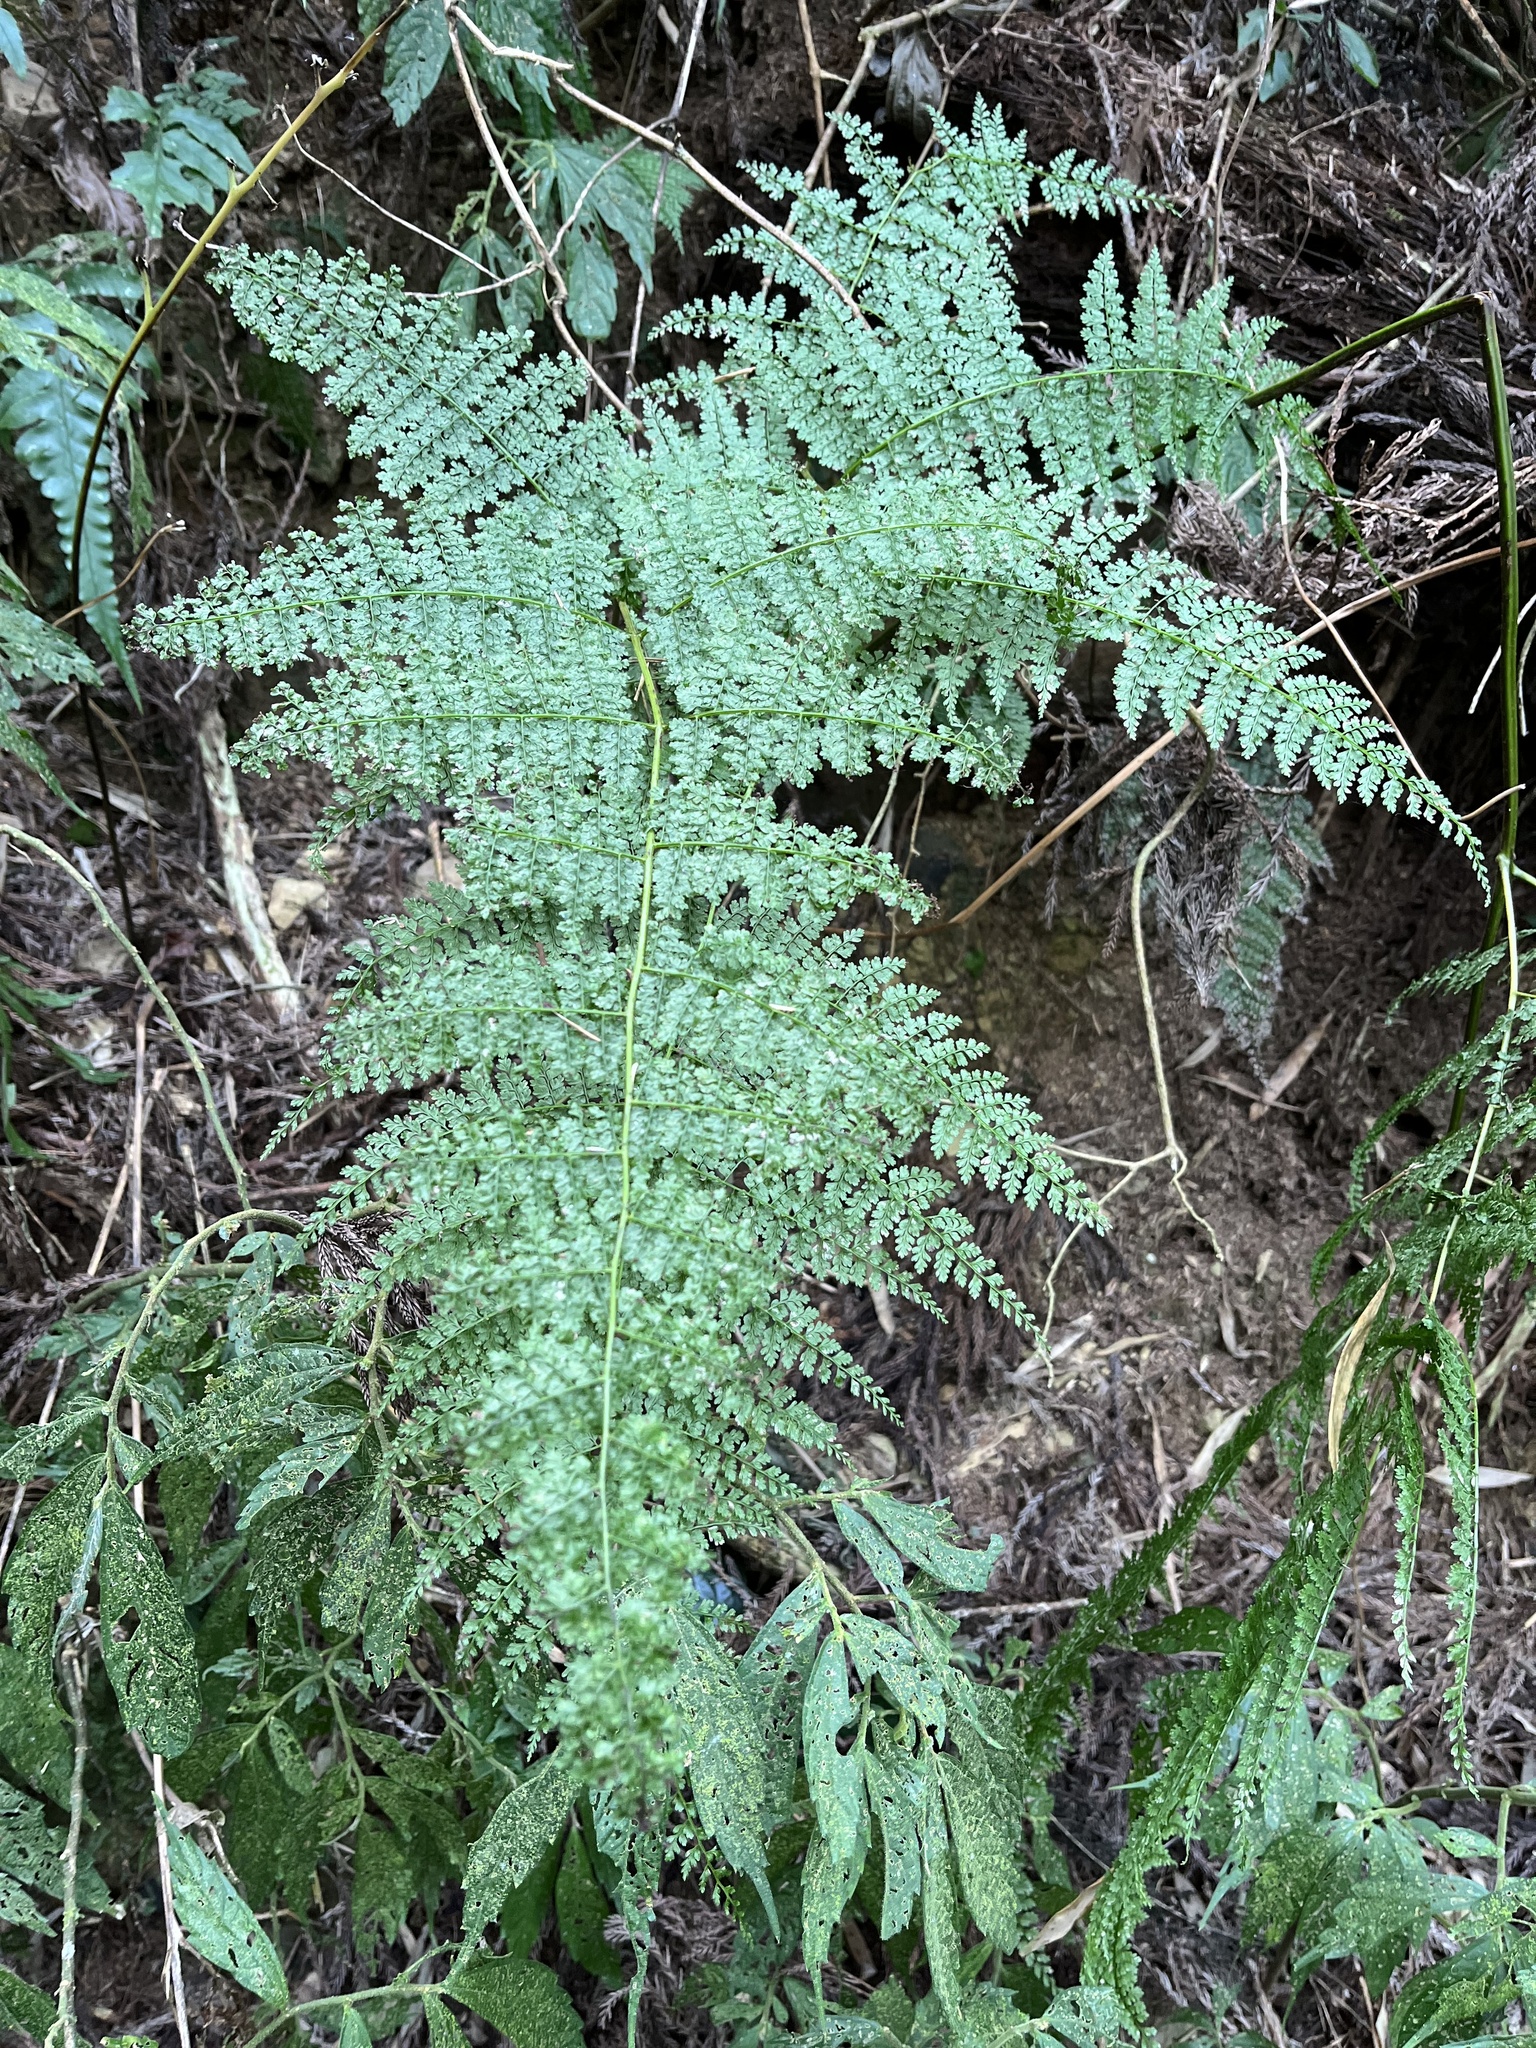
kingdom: Plantae
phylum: Tracheophyta
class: Polypodiopsida
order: Polypodiales
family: Dennstaedtiaceae
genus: Monachosorum
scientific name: Monachosorum henryi
